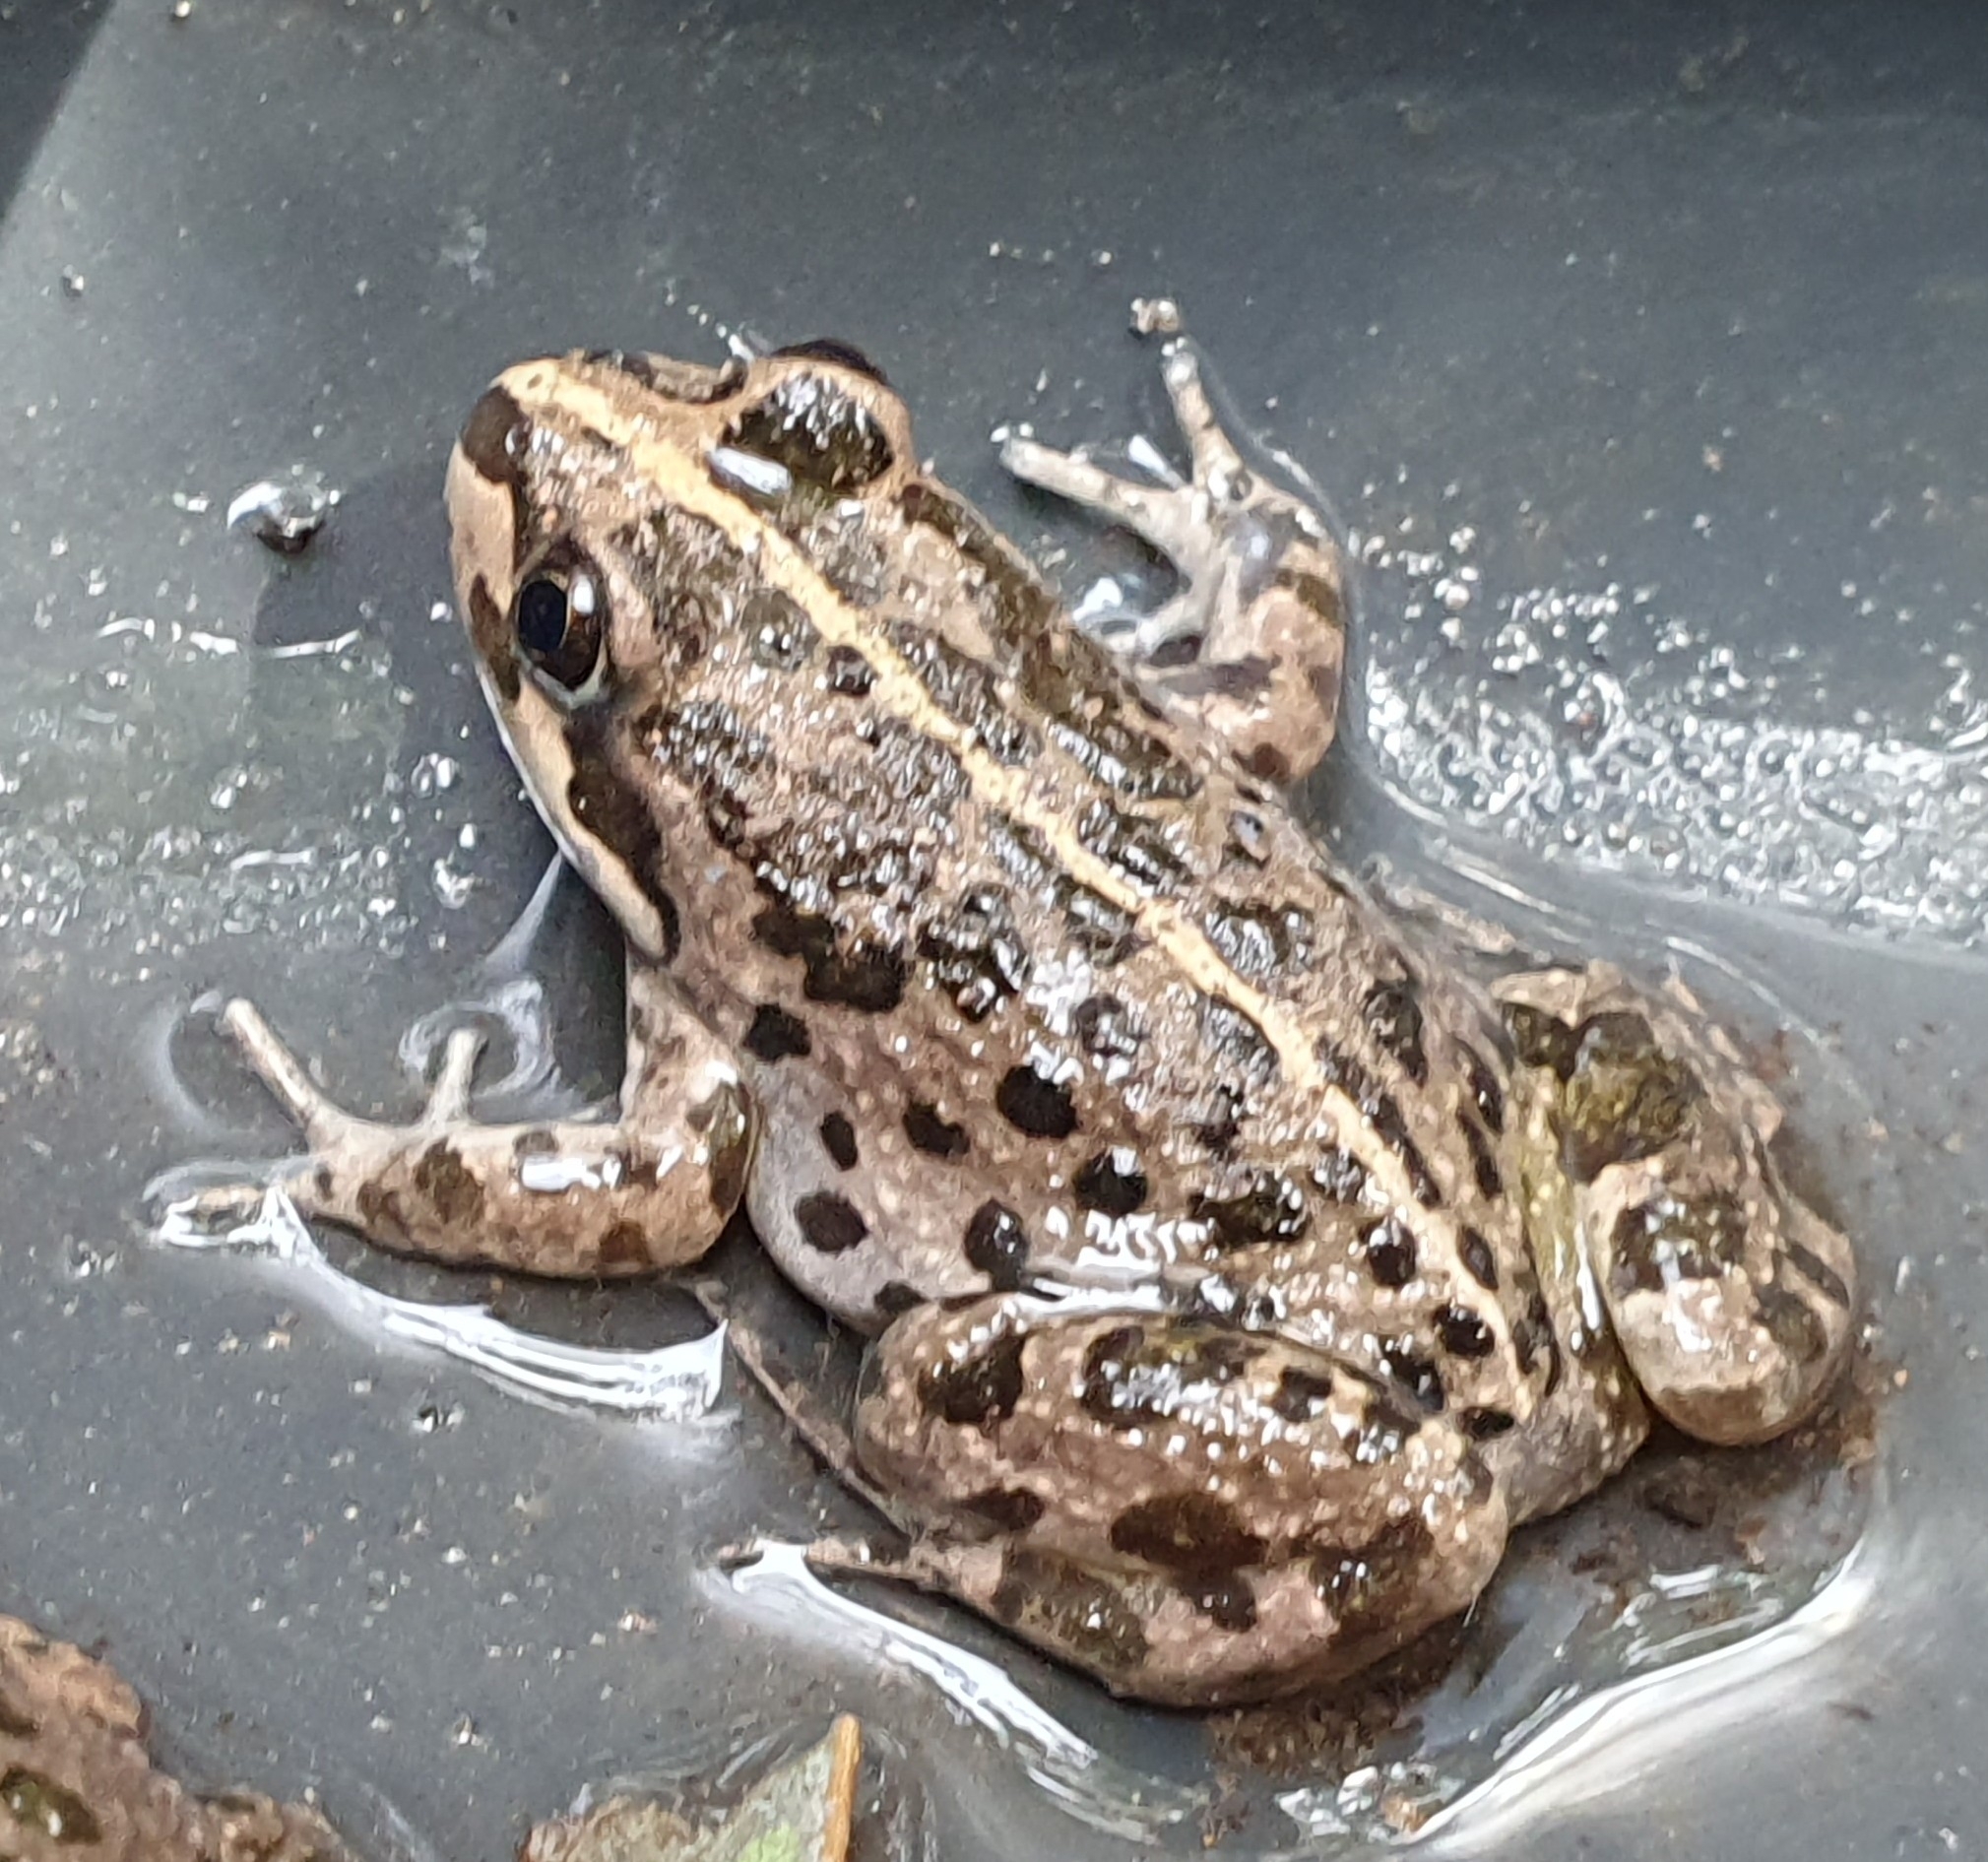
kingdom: Animalia
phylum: Chordata
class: Amphibia
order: Anura
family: Limnodynastidae
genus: Limnodynastes
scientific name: Limnodynastes tasmaniensis
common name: Spotted marsh frog
